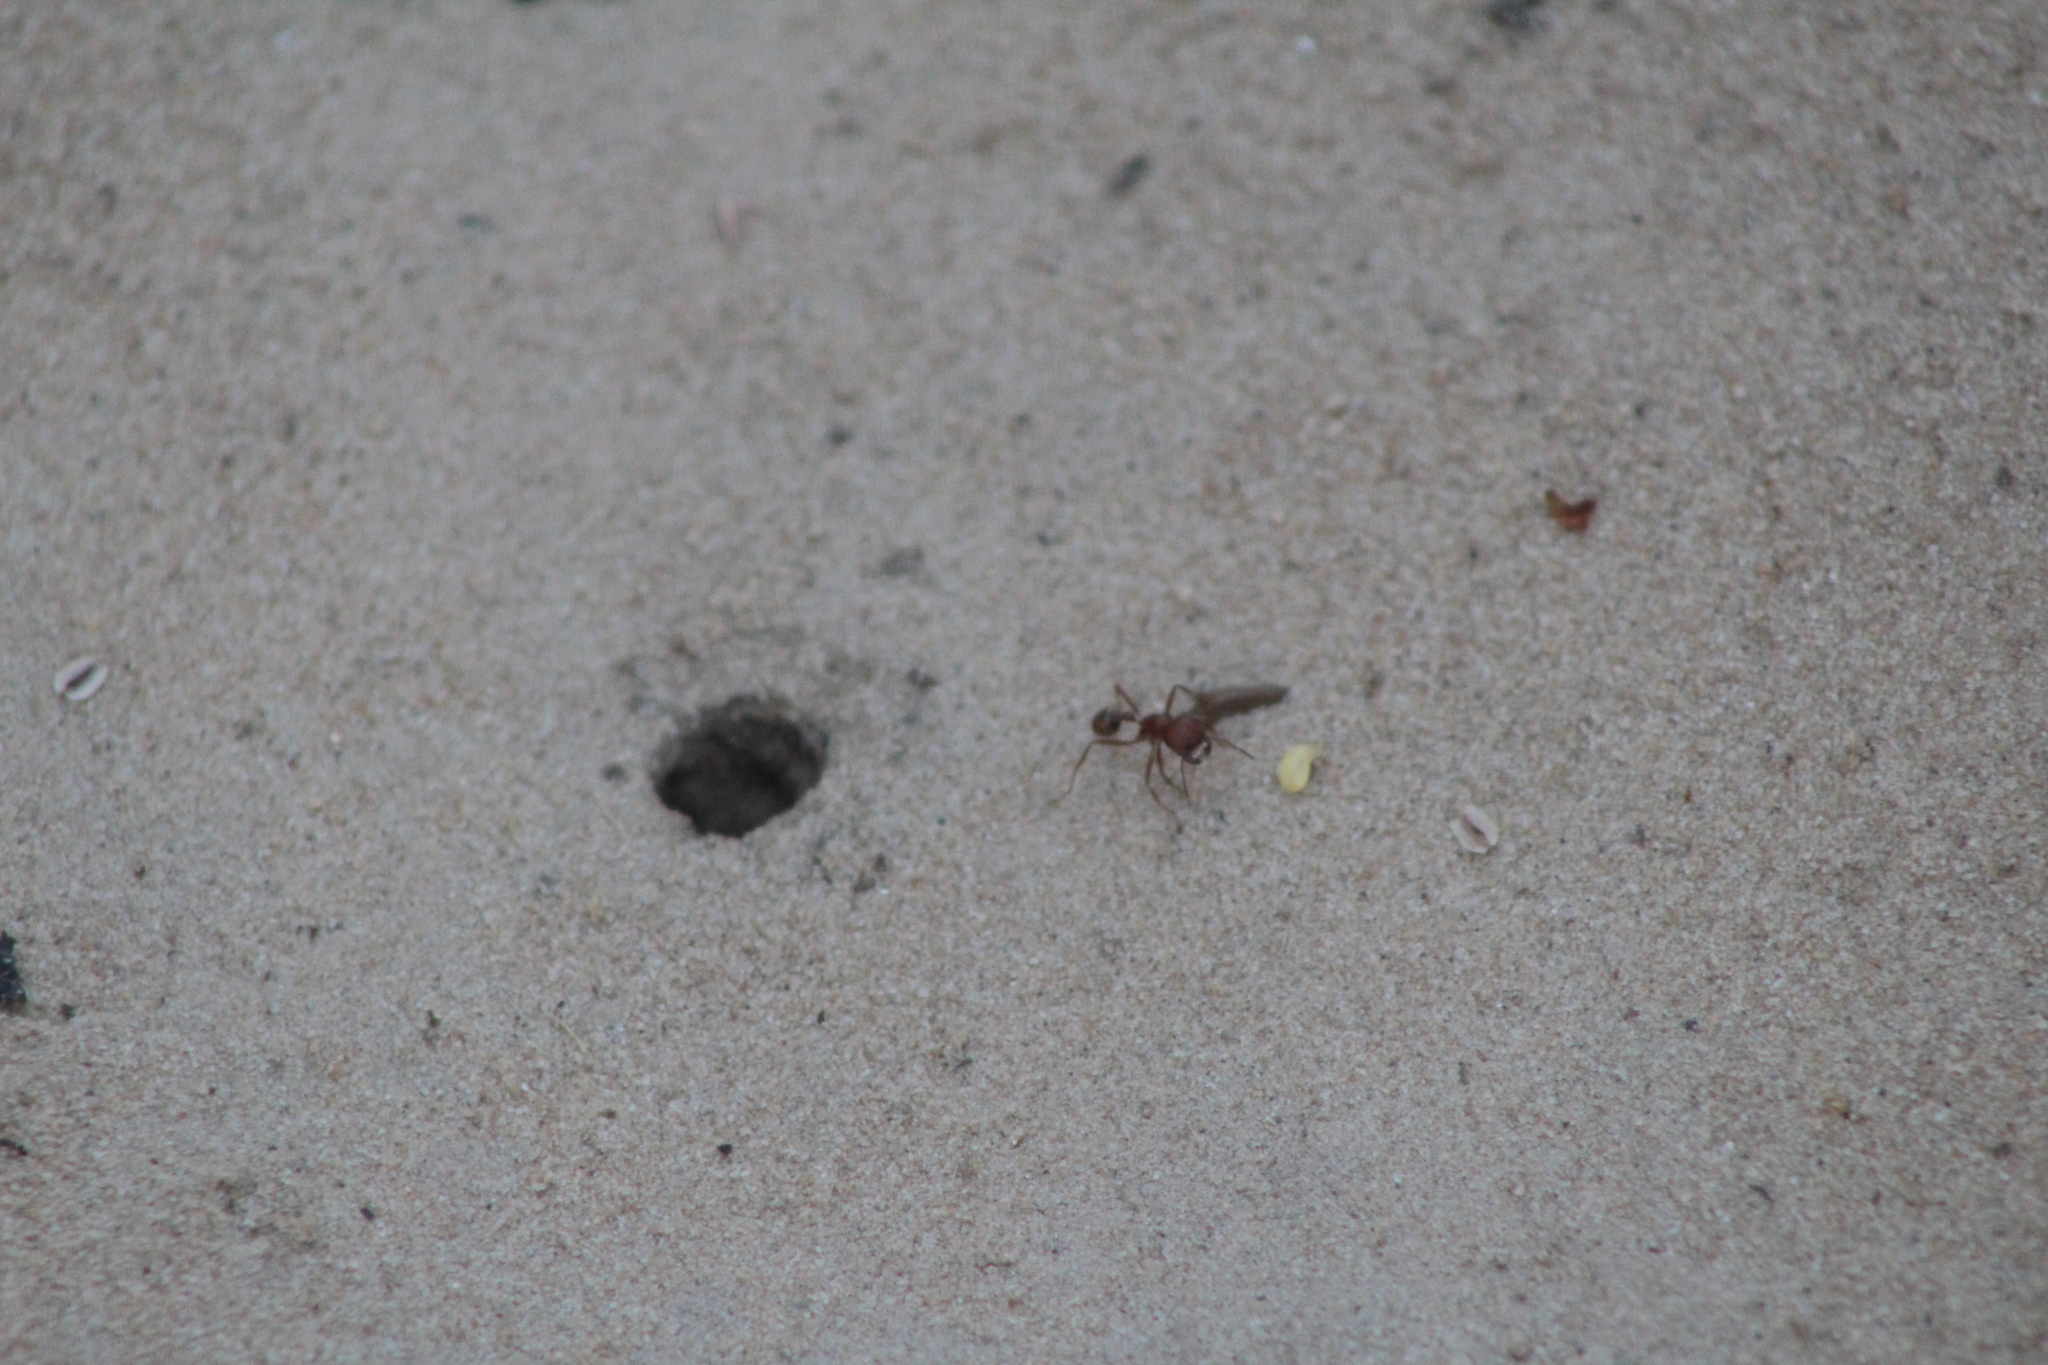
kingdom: Animalia
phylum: Arthropoda
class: Insecta
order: Hymenoptera
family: Formicidae
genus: Pogonomyrmex
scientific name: Pogonomyrmex comanche
